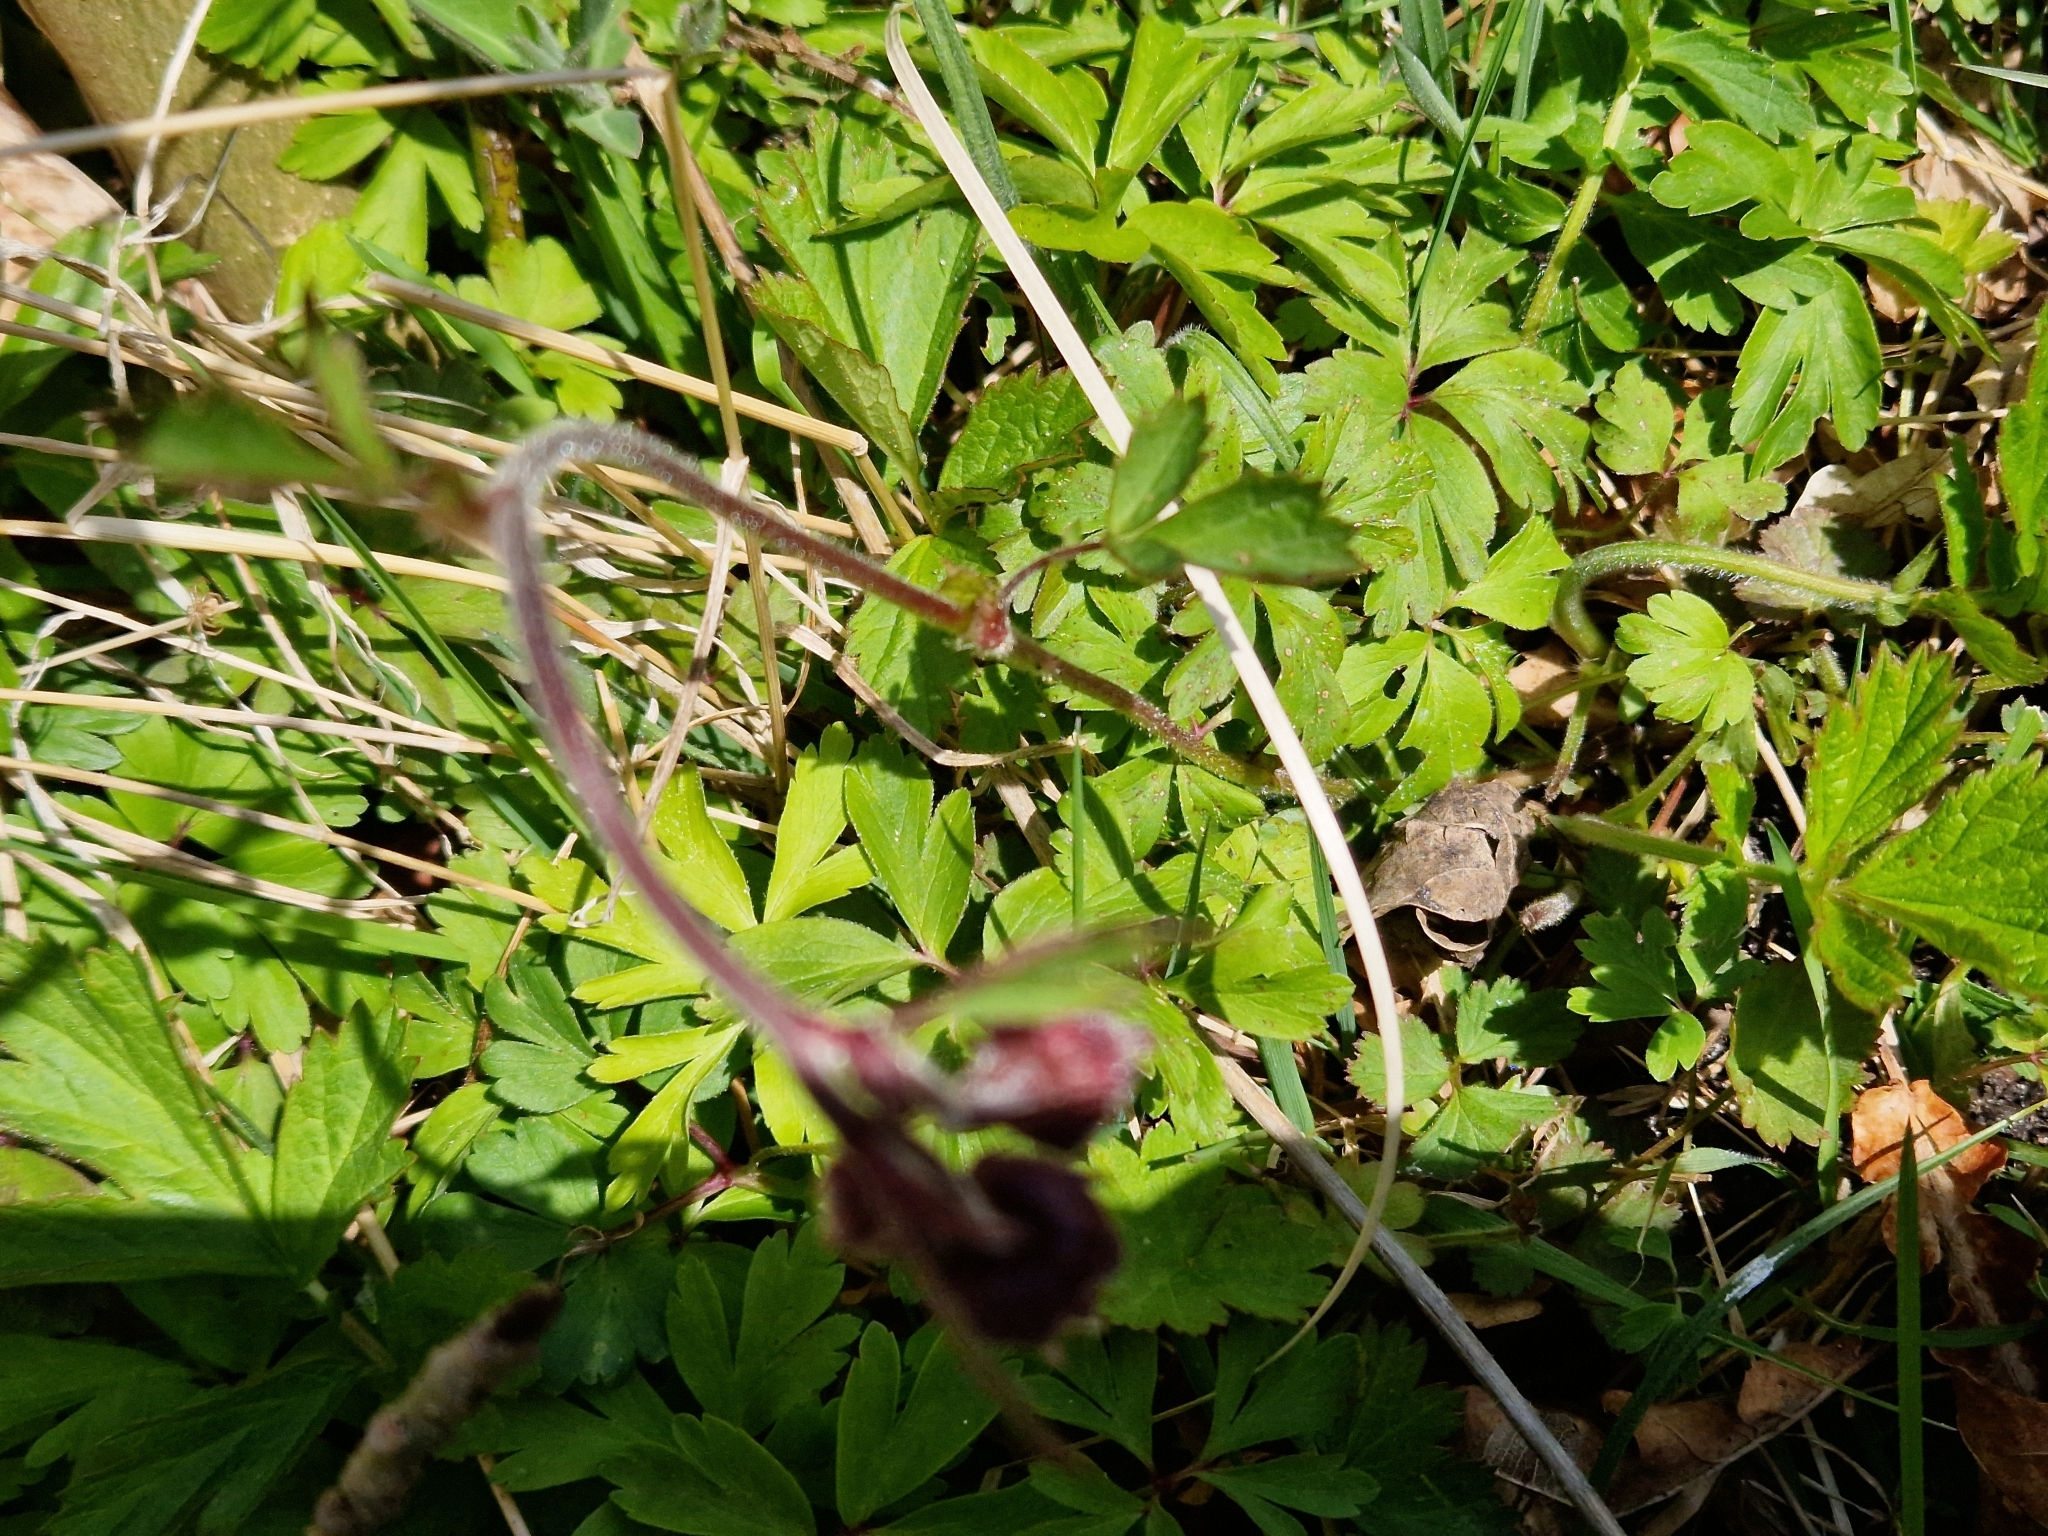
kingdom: Plantae
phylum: Tracheophyta
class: Magnoliopsida
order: Rosales
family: Rosaceae
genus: Geum
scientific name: Geum rivale
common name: Water avens
